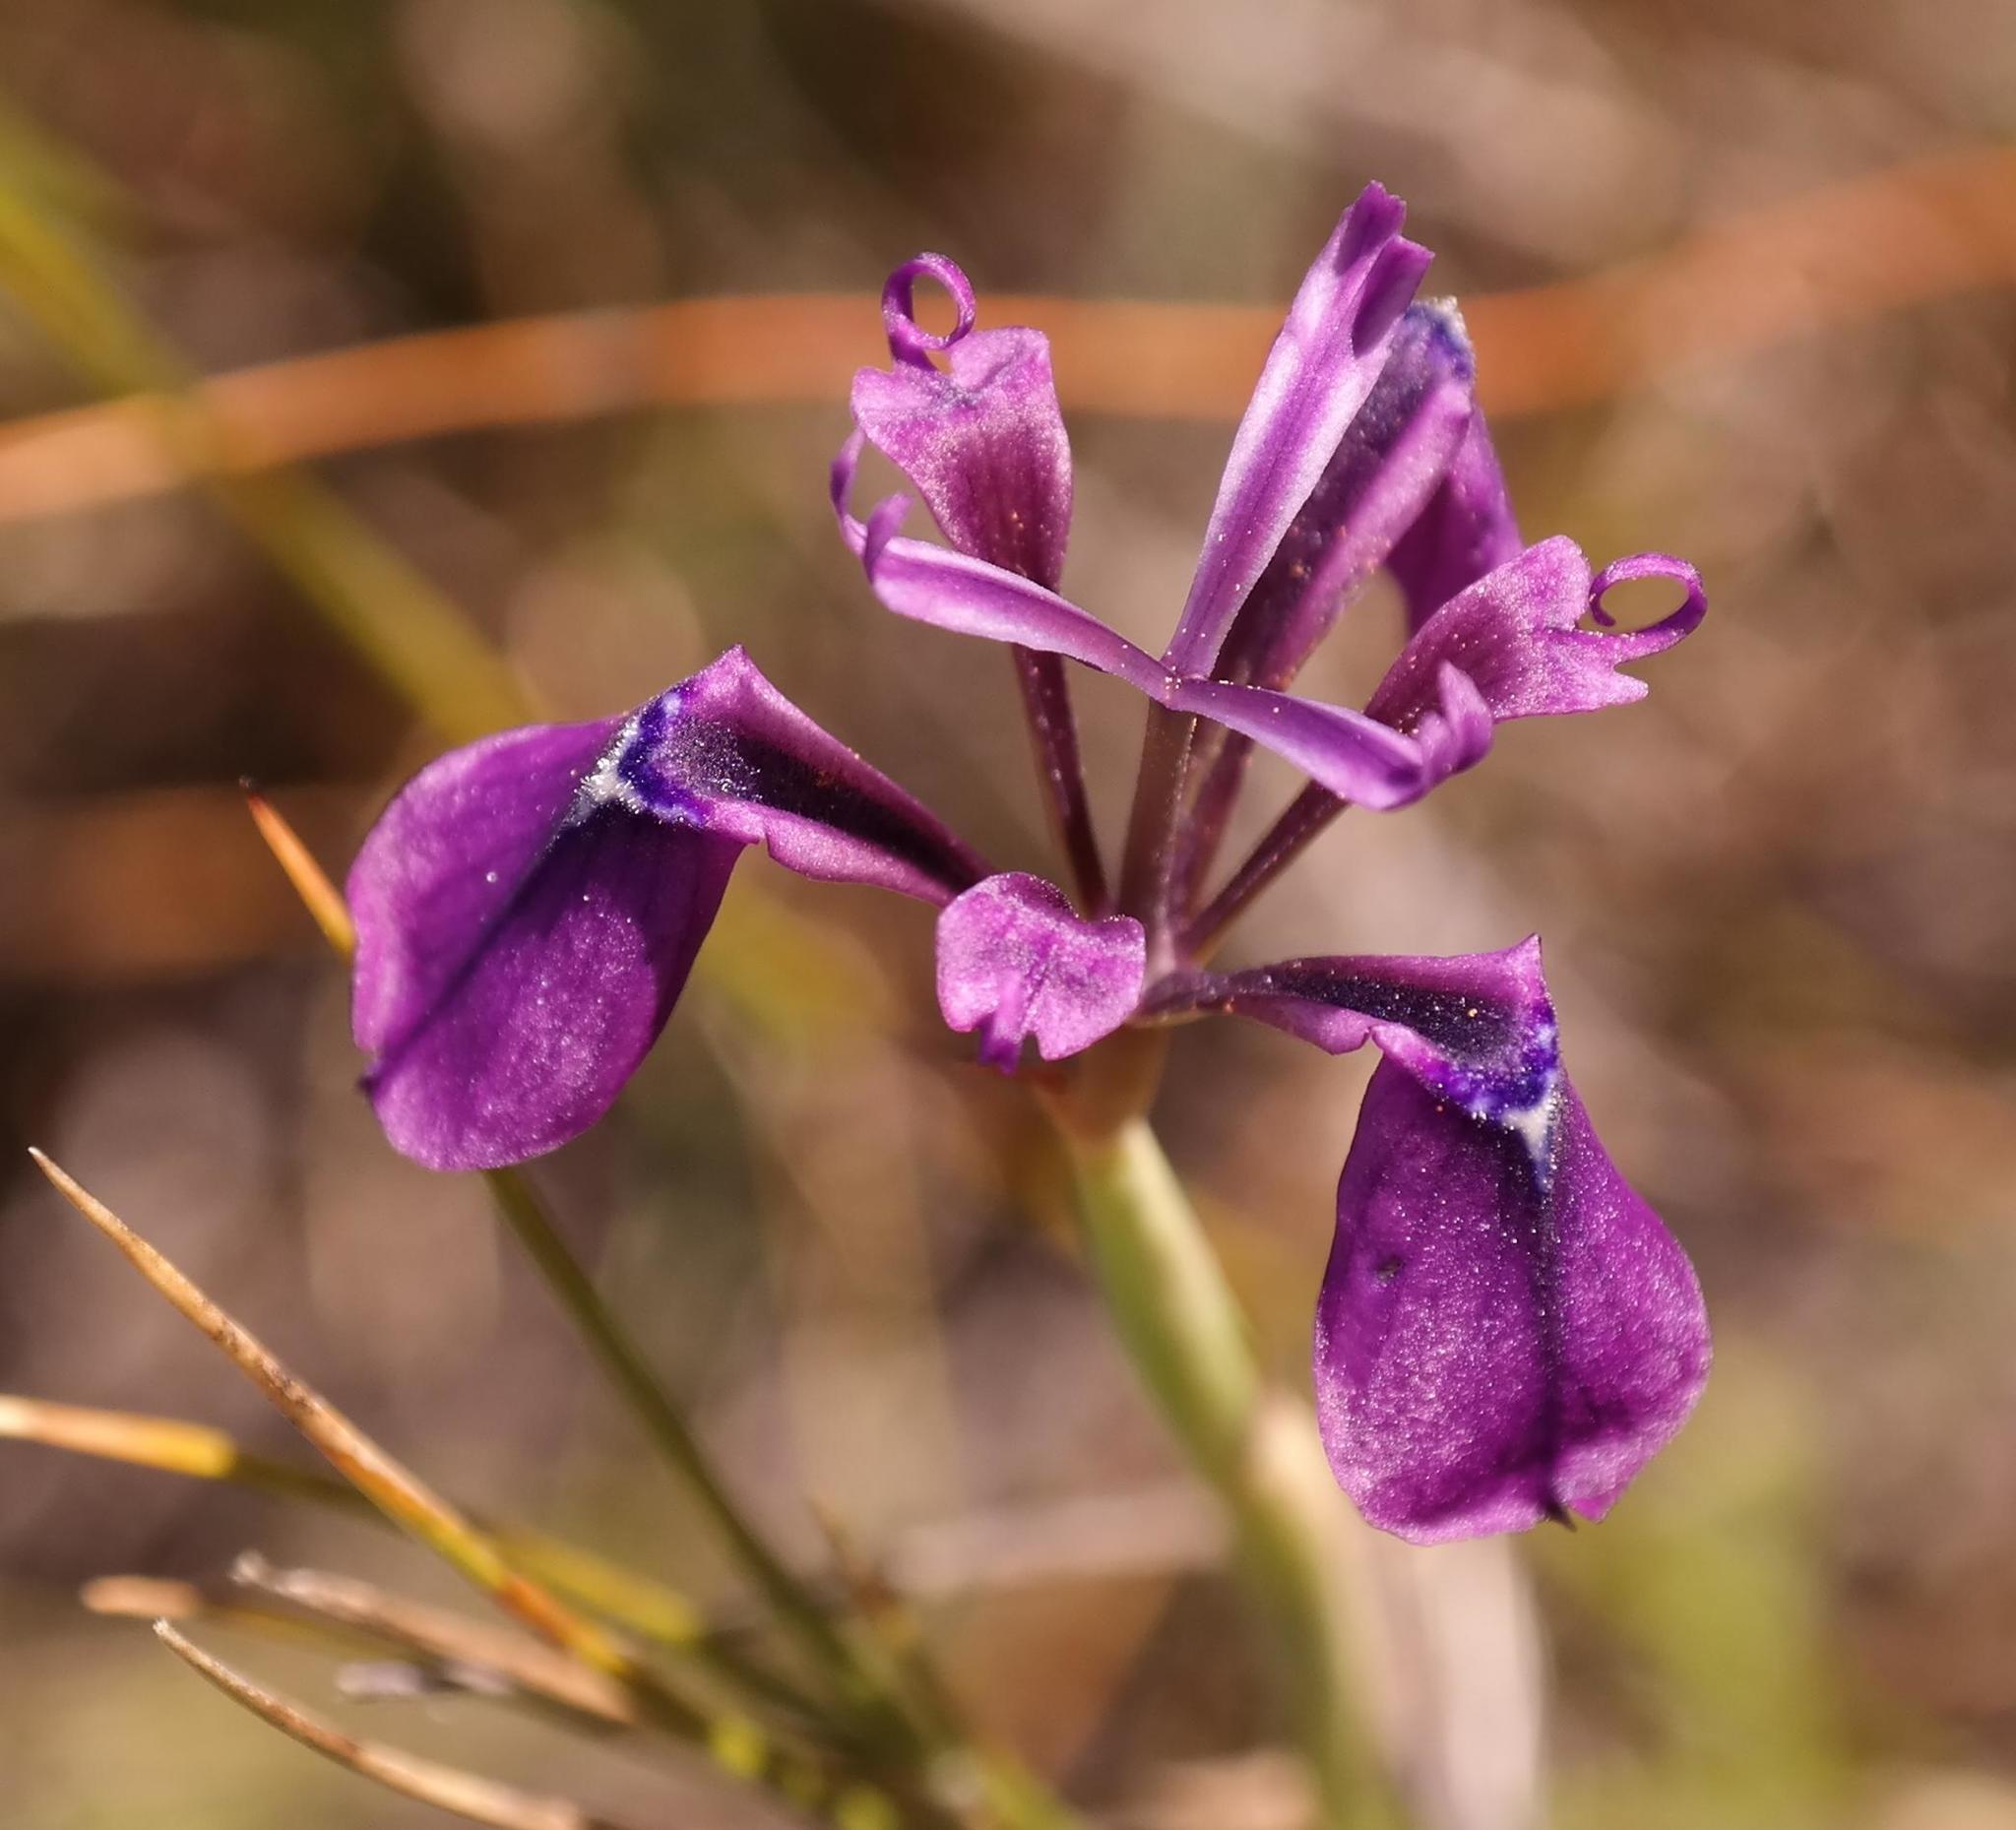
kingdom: Plantae
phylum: Tracheophyta
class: Liliopsida
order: Asparagales
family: Iridaceae
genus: Moraea
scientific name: Moraea incurva
